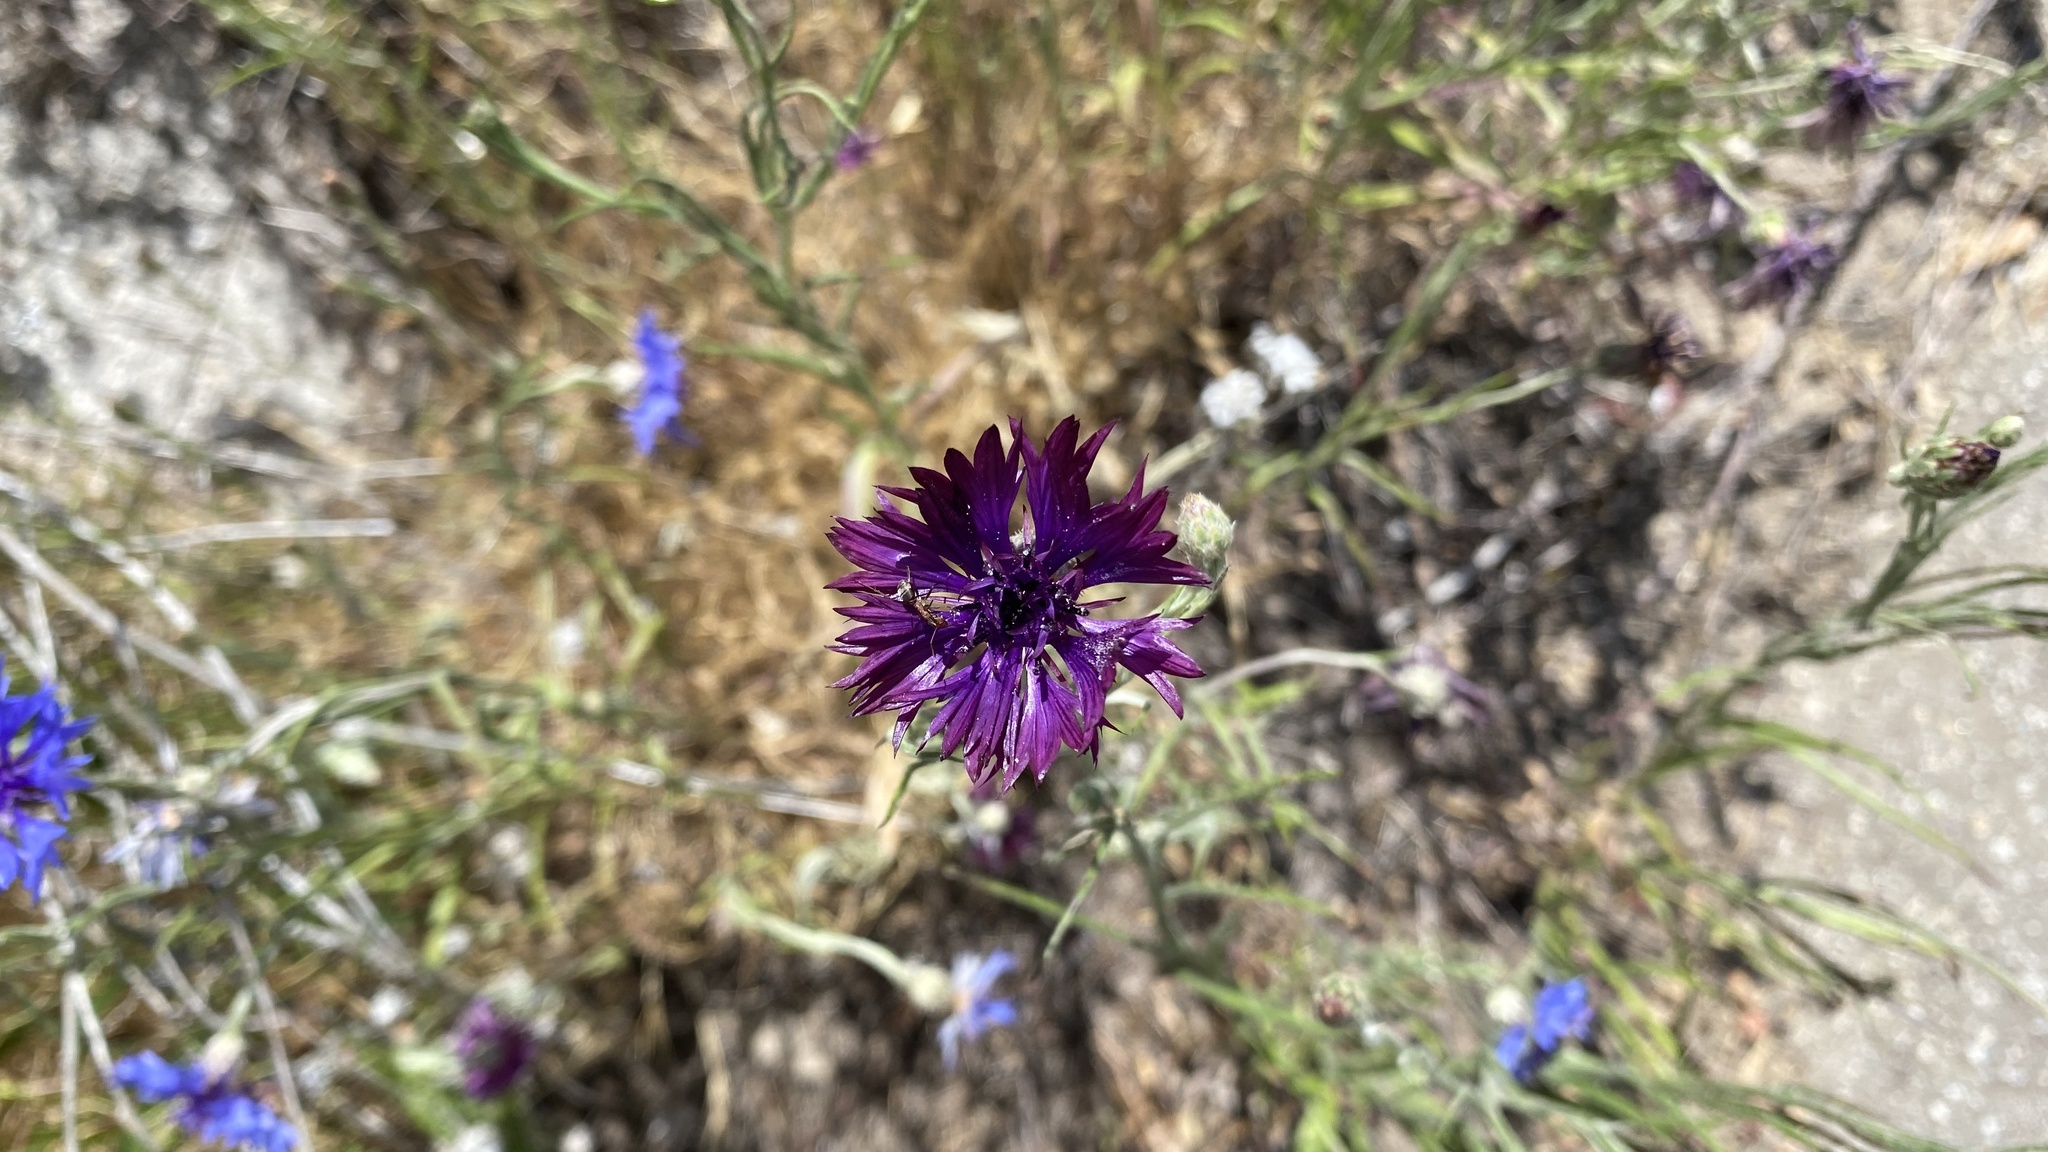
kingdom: Plantae
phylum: Tracheophyta
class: Magnoliopsida
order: Asterales
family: Asteraceae
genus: Centaurea
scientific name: Centaurea cyanus
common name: Cornflower
